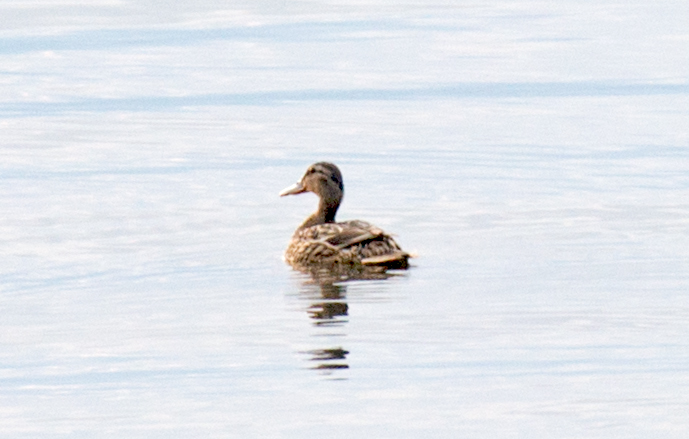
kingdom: Animalia
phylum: Chordata
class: Aves
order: Anseriformes
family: Anatidae
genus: Anas
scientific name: Anas platyrhynchos
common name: Mallard
